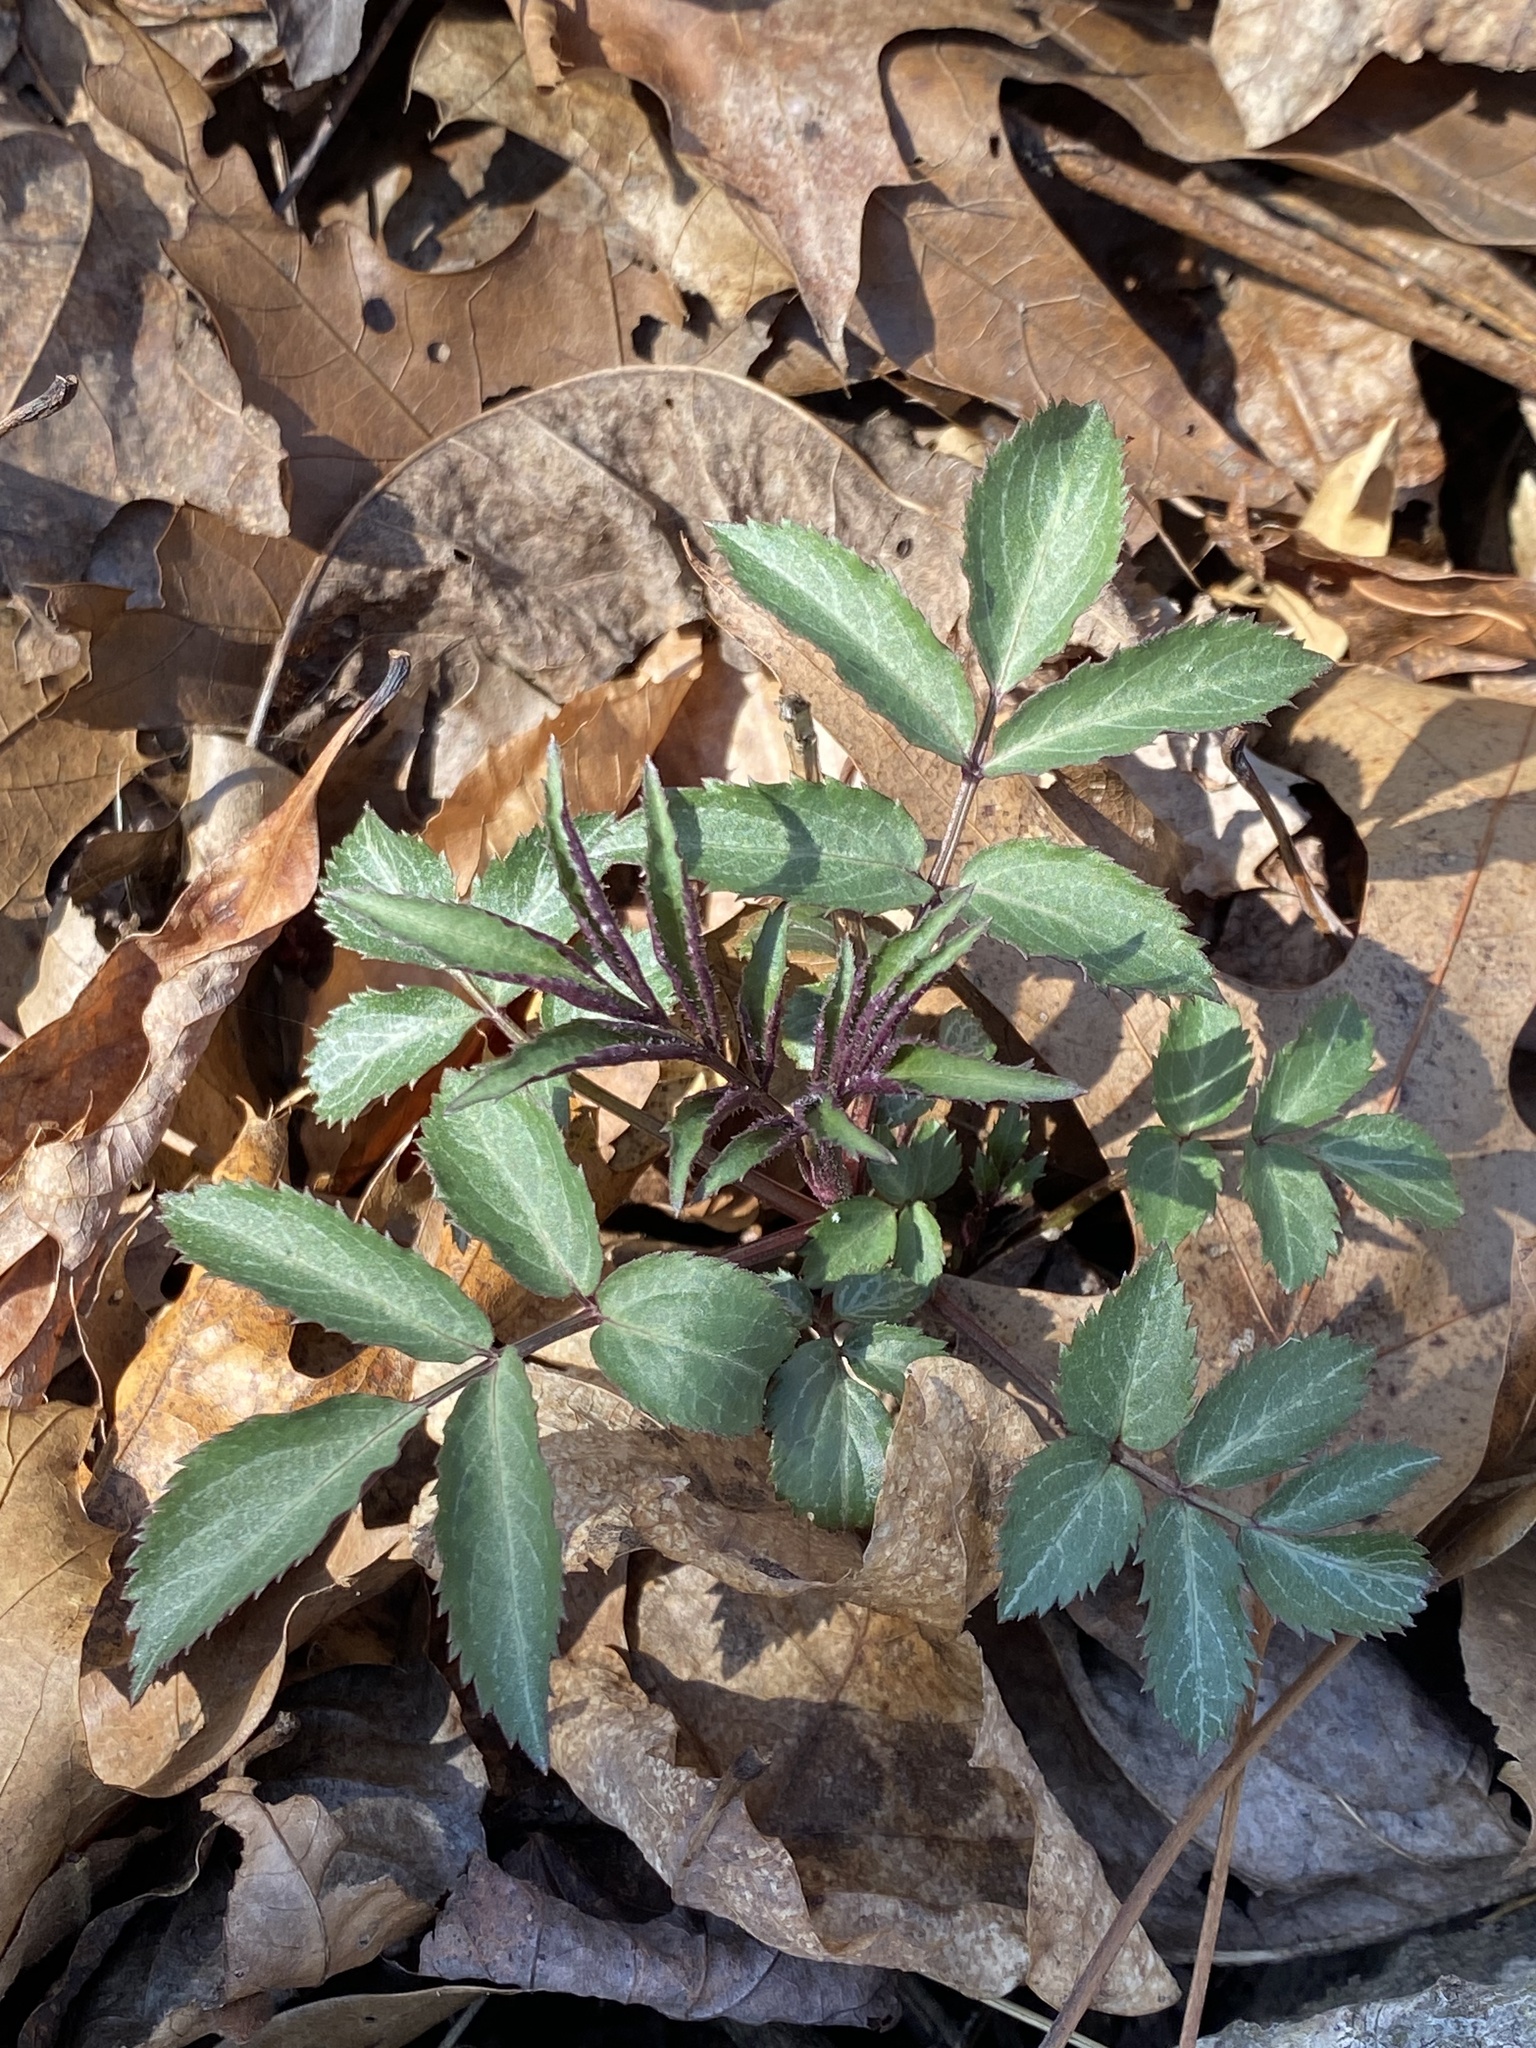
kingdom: Plantae
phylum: Tracheophyta
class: Magnoliopsida
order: Dipsacales
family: Viburnaceae
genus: Sambucus
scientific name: Sambucus canadensis
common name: American elder
